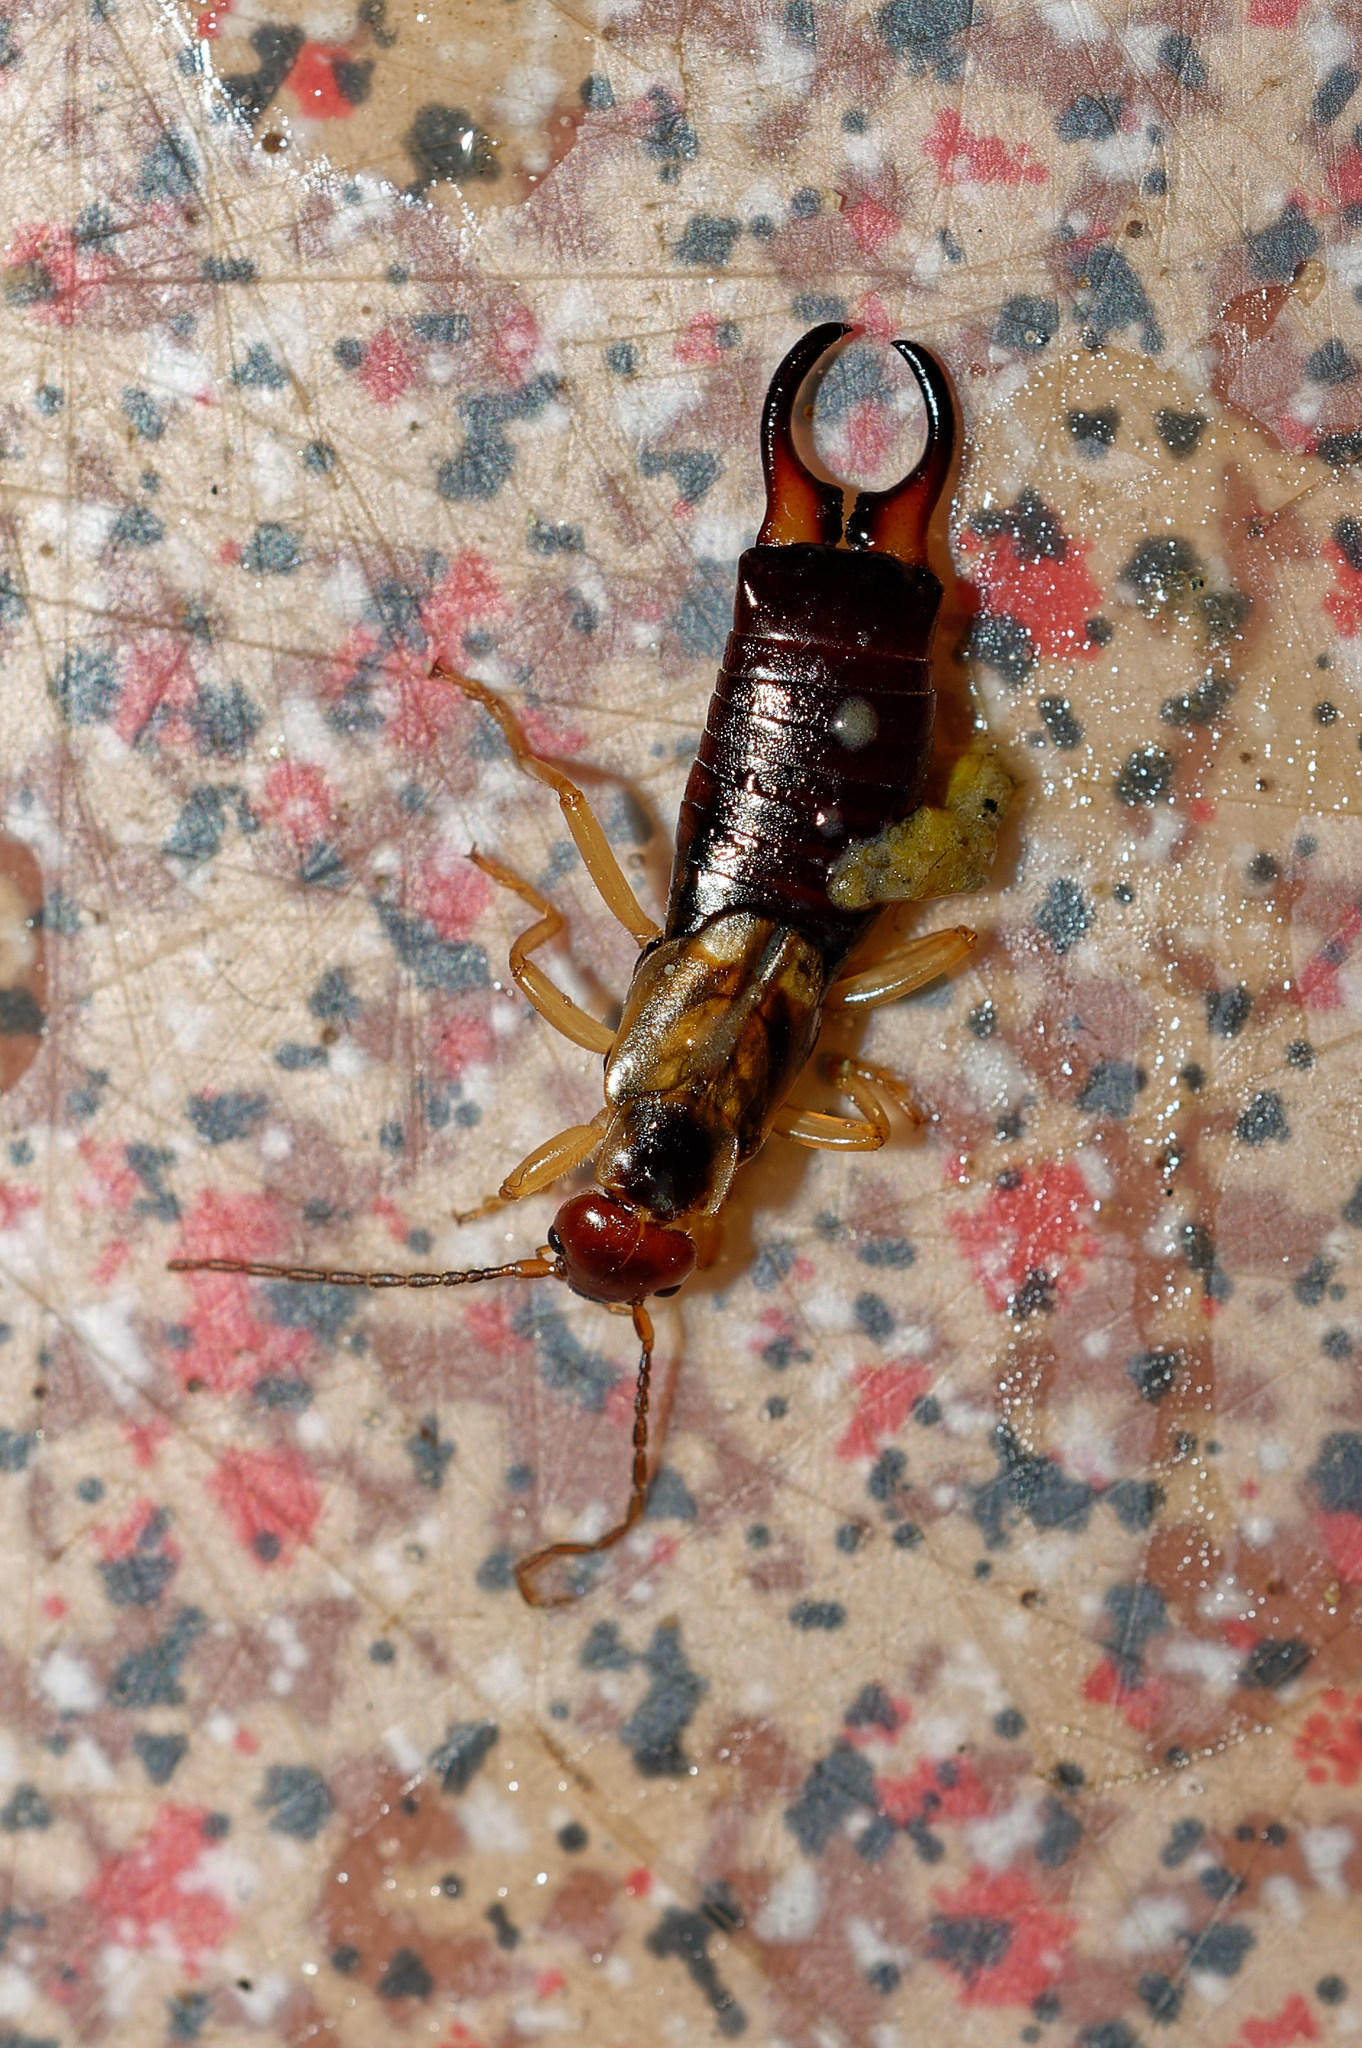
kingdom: Animalia
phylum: Arthropoda
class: Insecta
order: Dermaptera
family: Forficulidae
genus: Forficula
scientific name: Forficula
